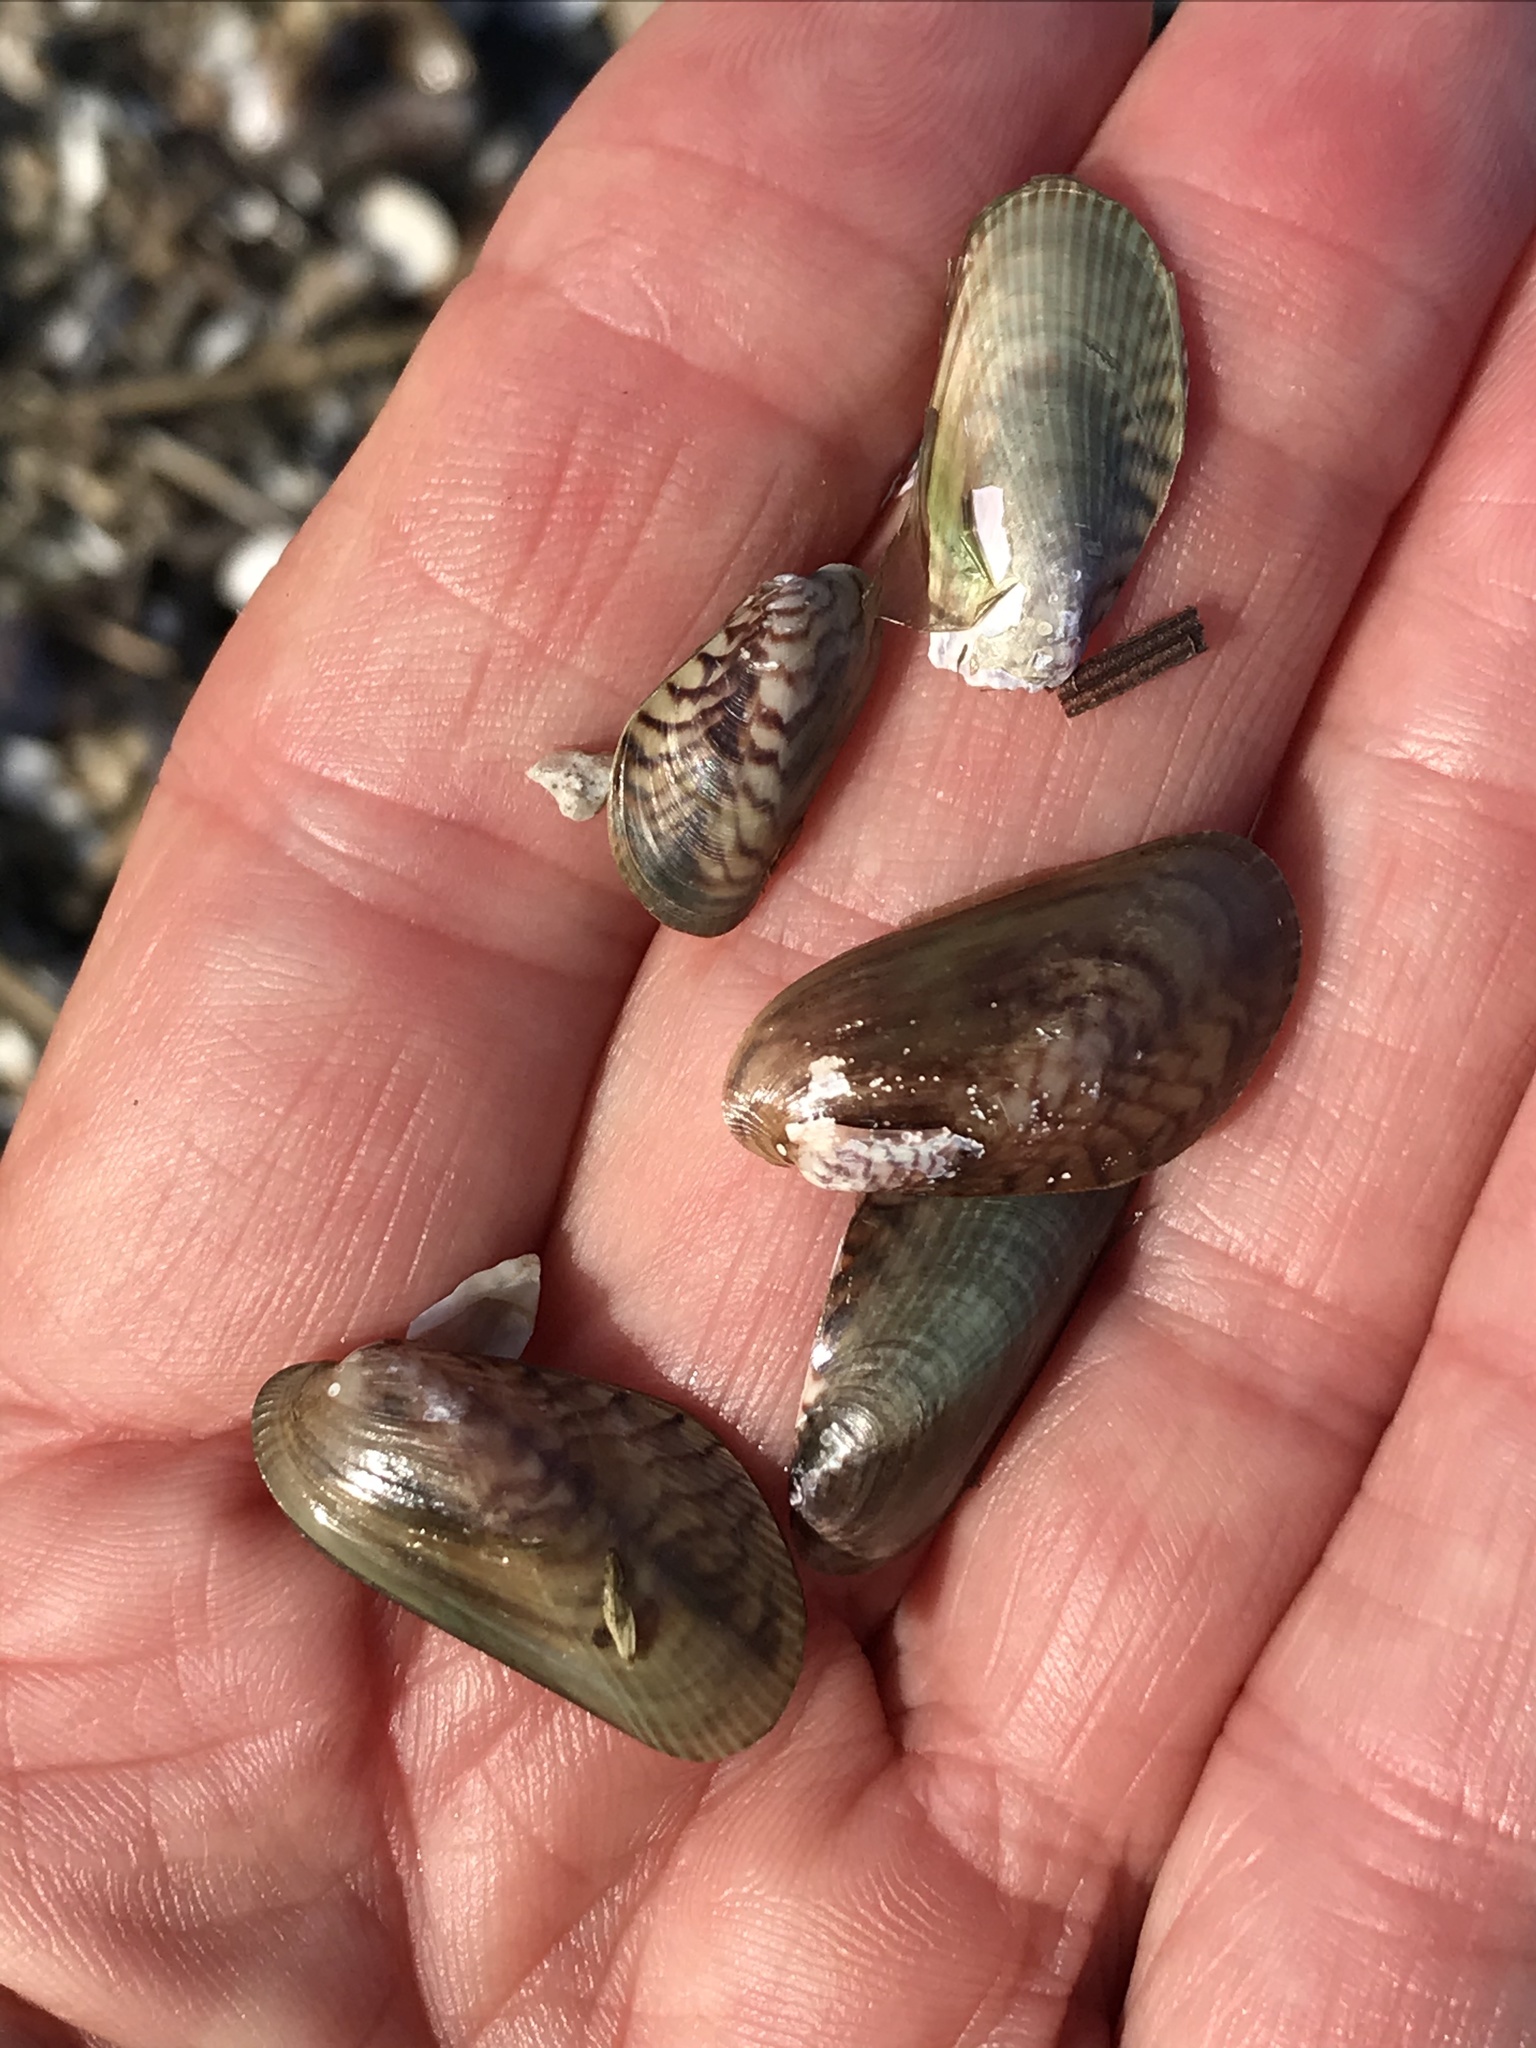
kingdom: Animalia
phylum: Mollusca
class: Bivalvia
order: Mytilida
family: Mytilidae
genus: Arcuatula
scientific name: Arcuatula senhousia
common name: Asian mussel
